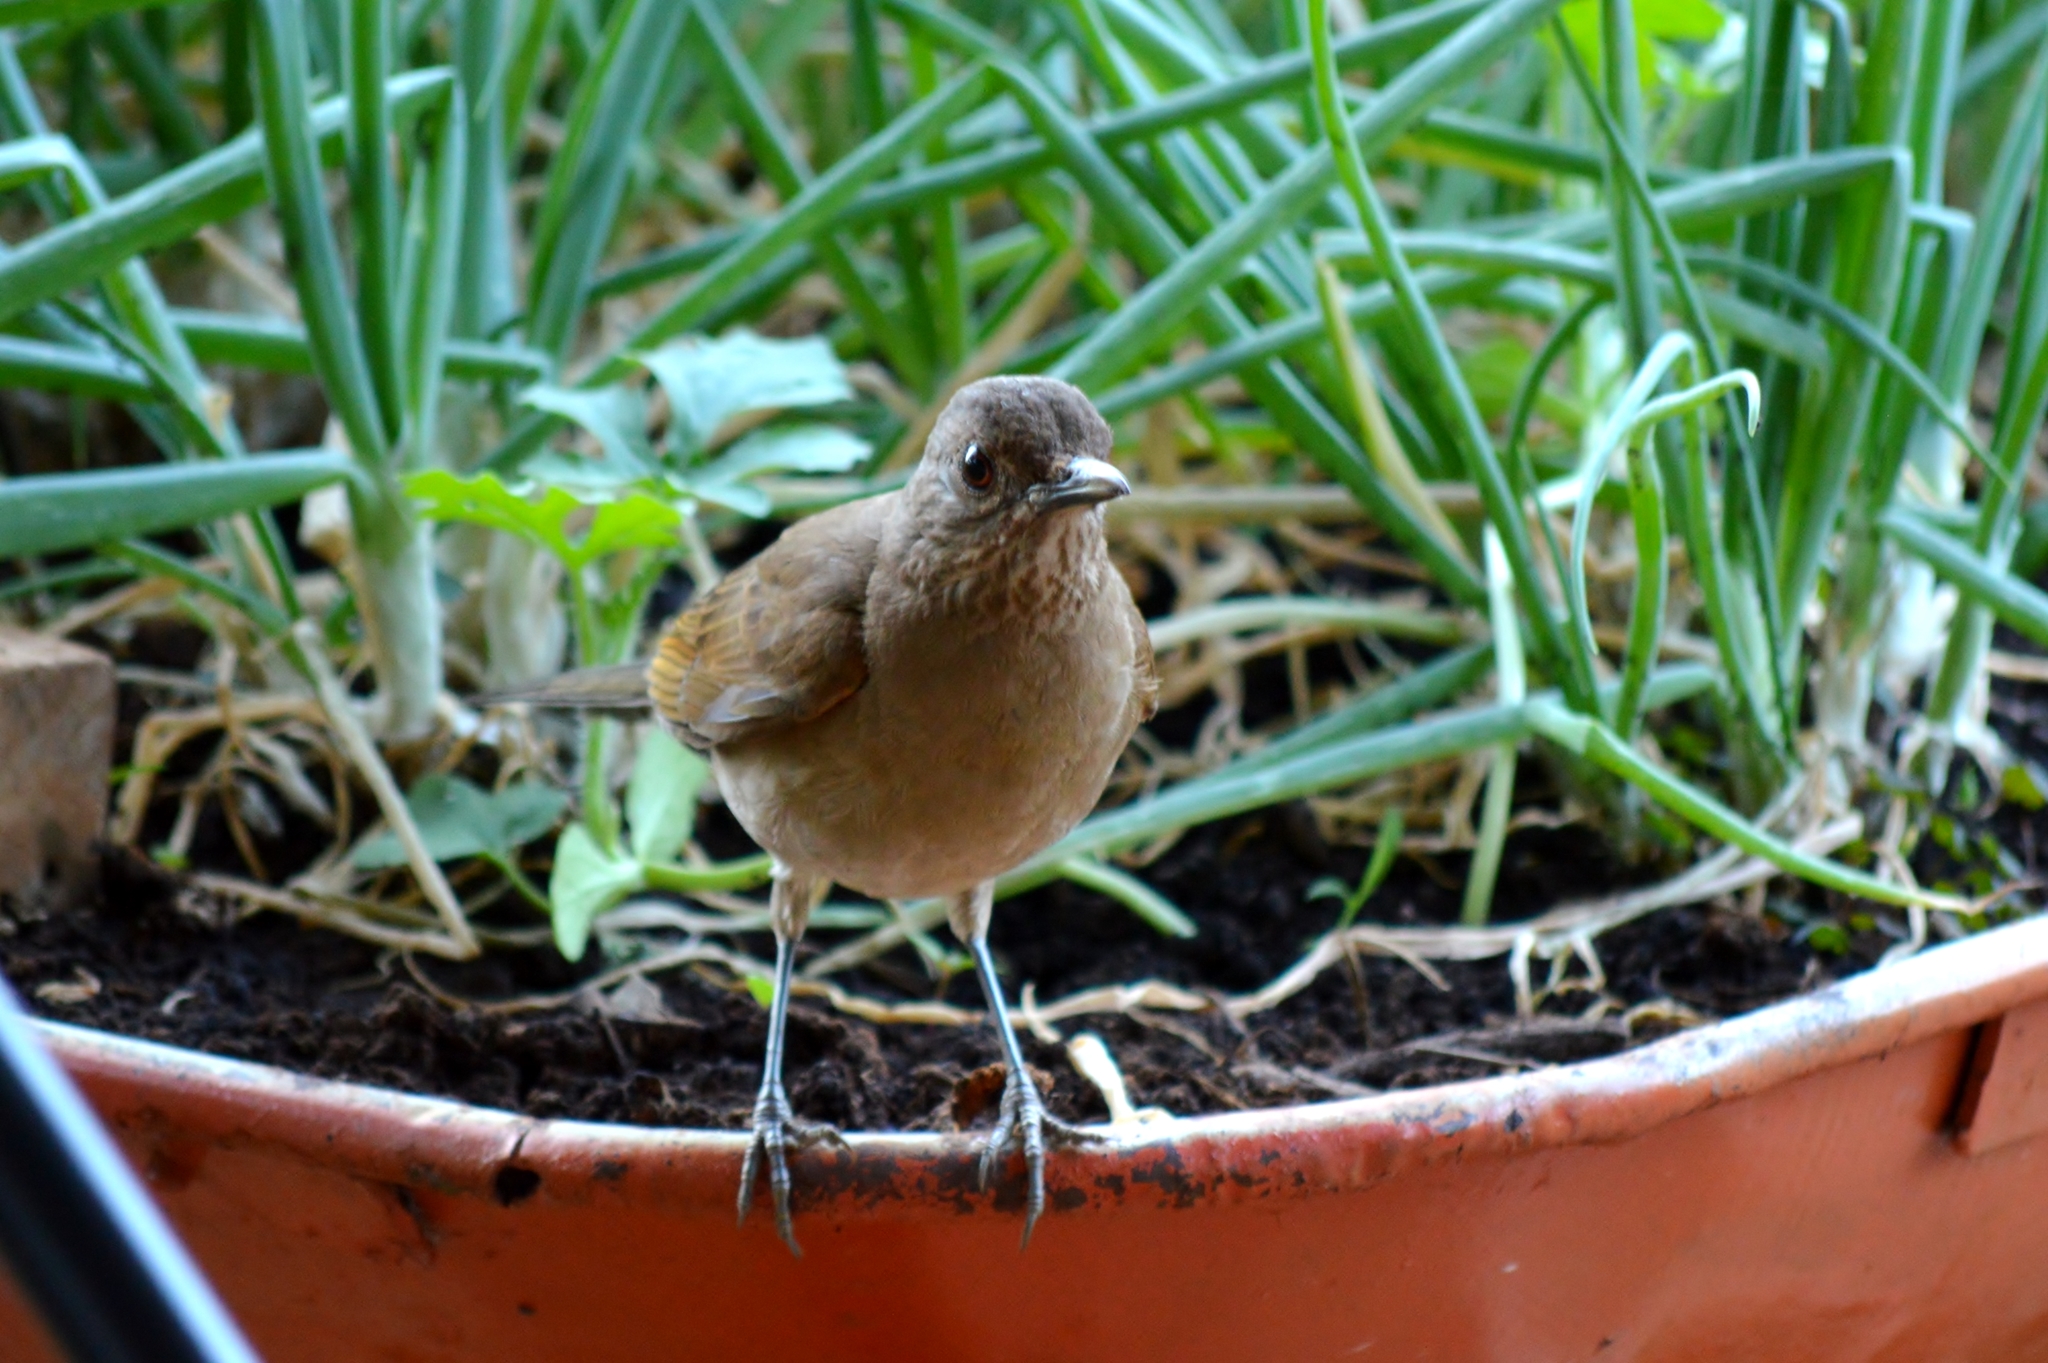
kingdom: Animalia
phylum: Chordata
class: Aves
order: Passeriformes
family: Turdidae
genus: Turdus
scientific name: Turdus leucomelas
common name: Pale-breasted thrush
